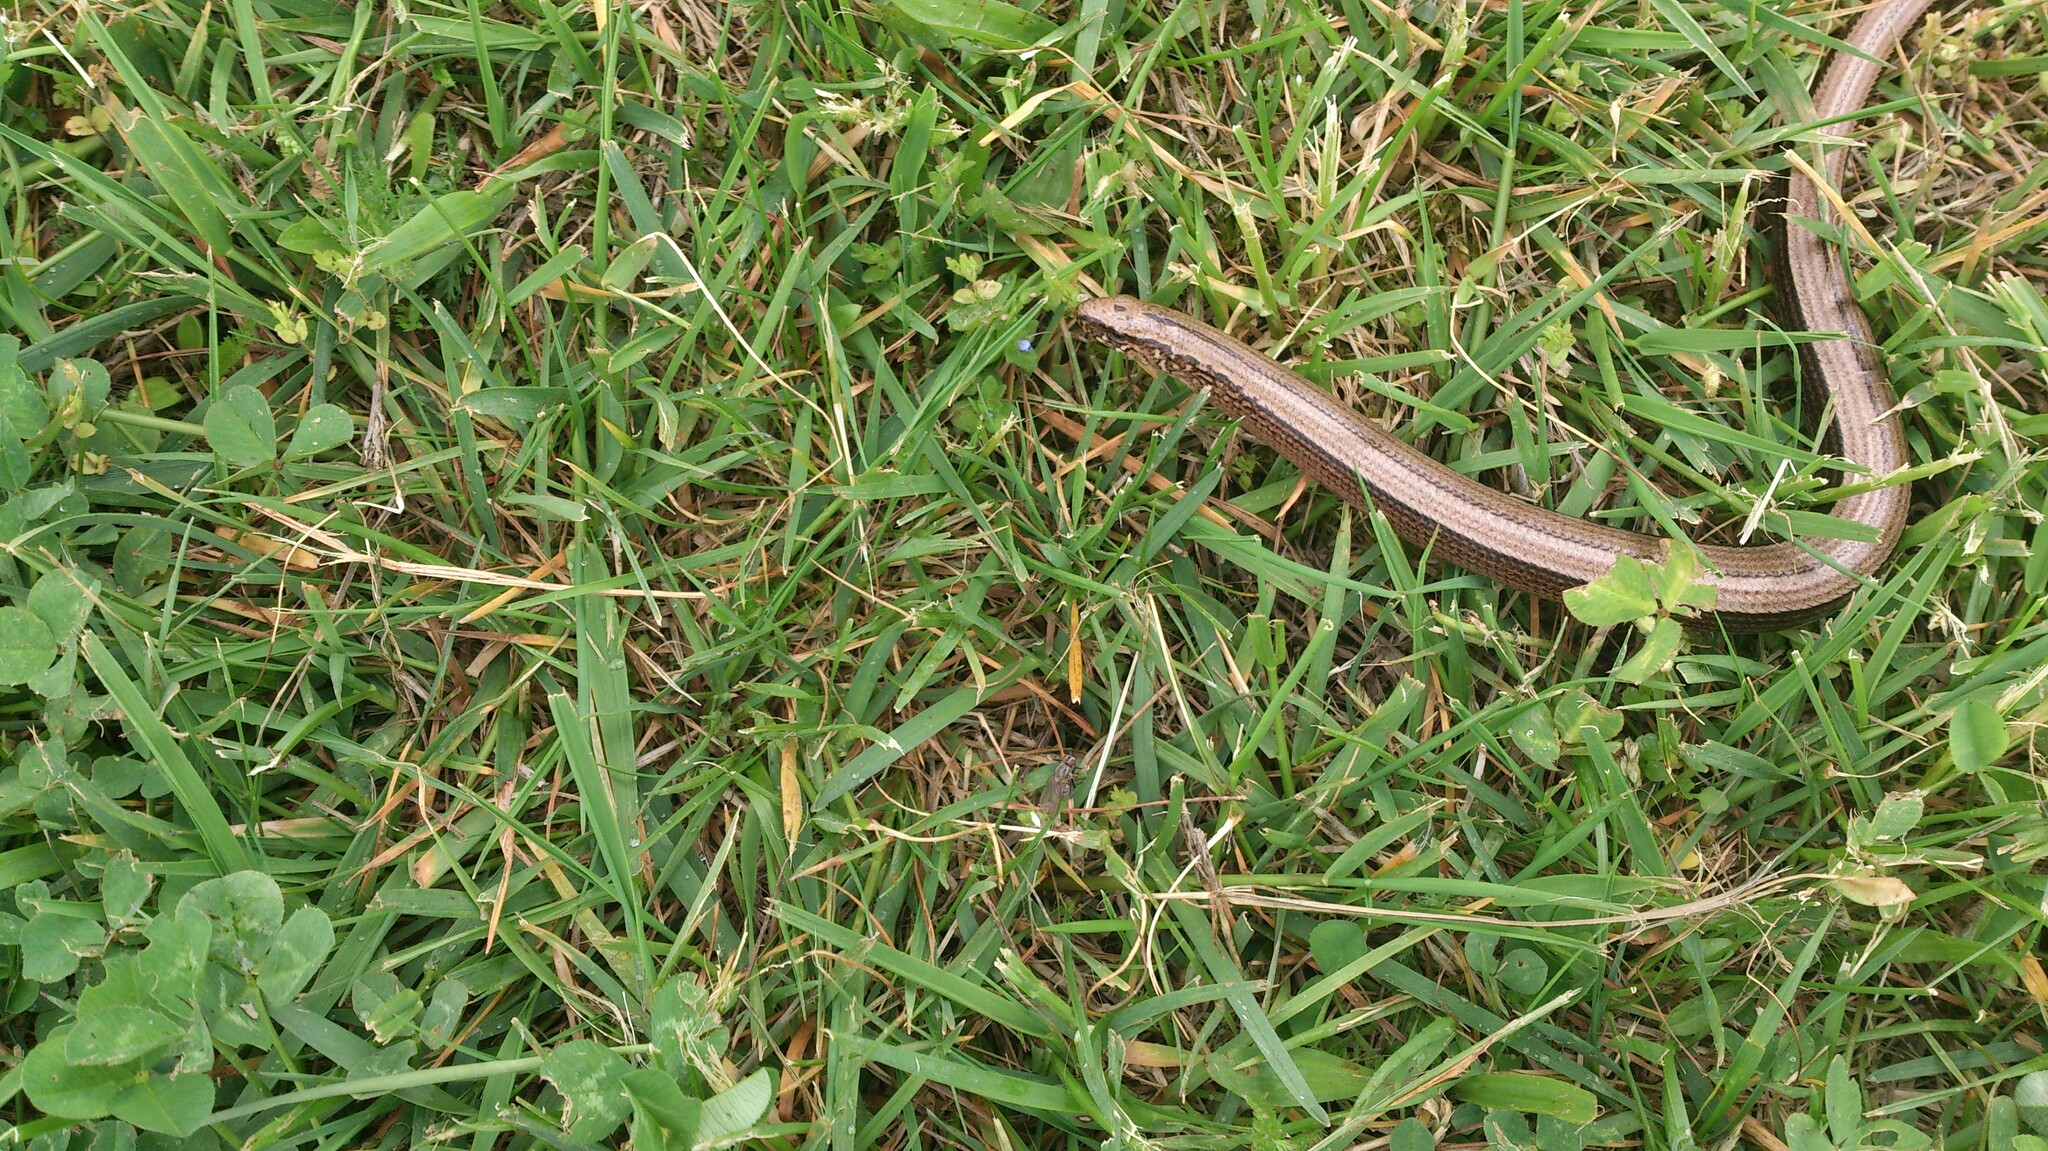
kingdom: Animalia
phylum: Chordata
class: Squamata
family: Anguidae
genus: Anguis
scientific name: Anguis fragilis
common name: Slow worm
